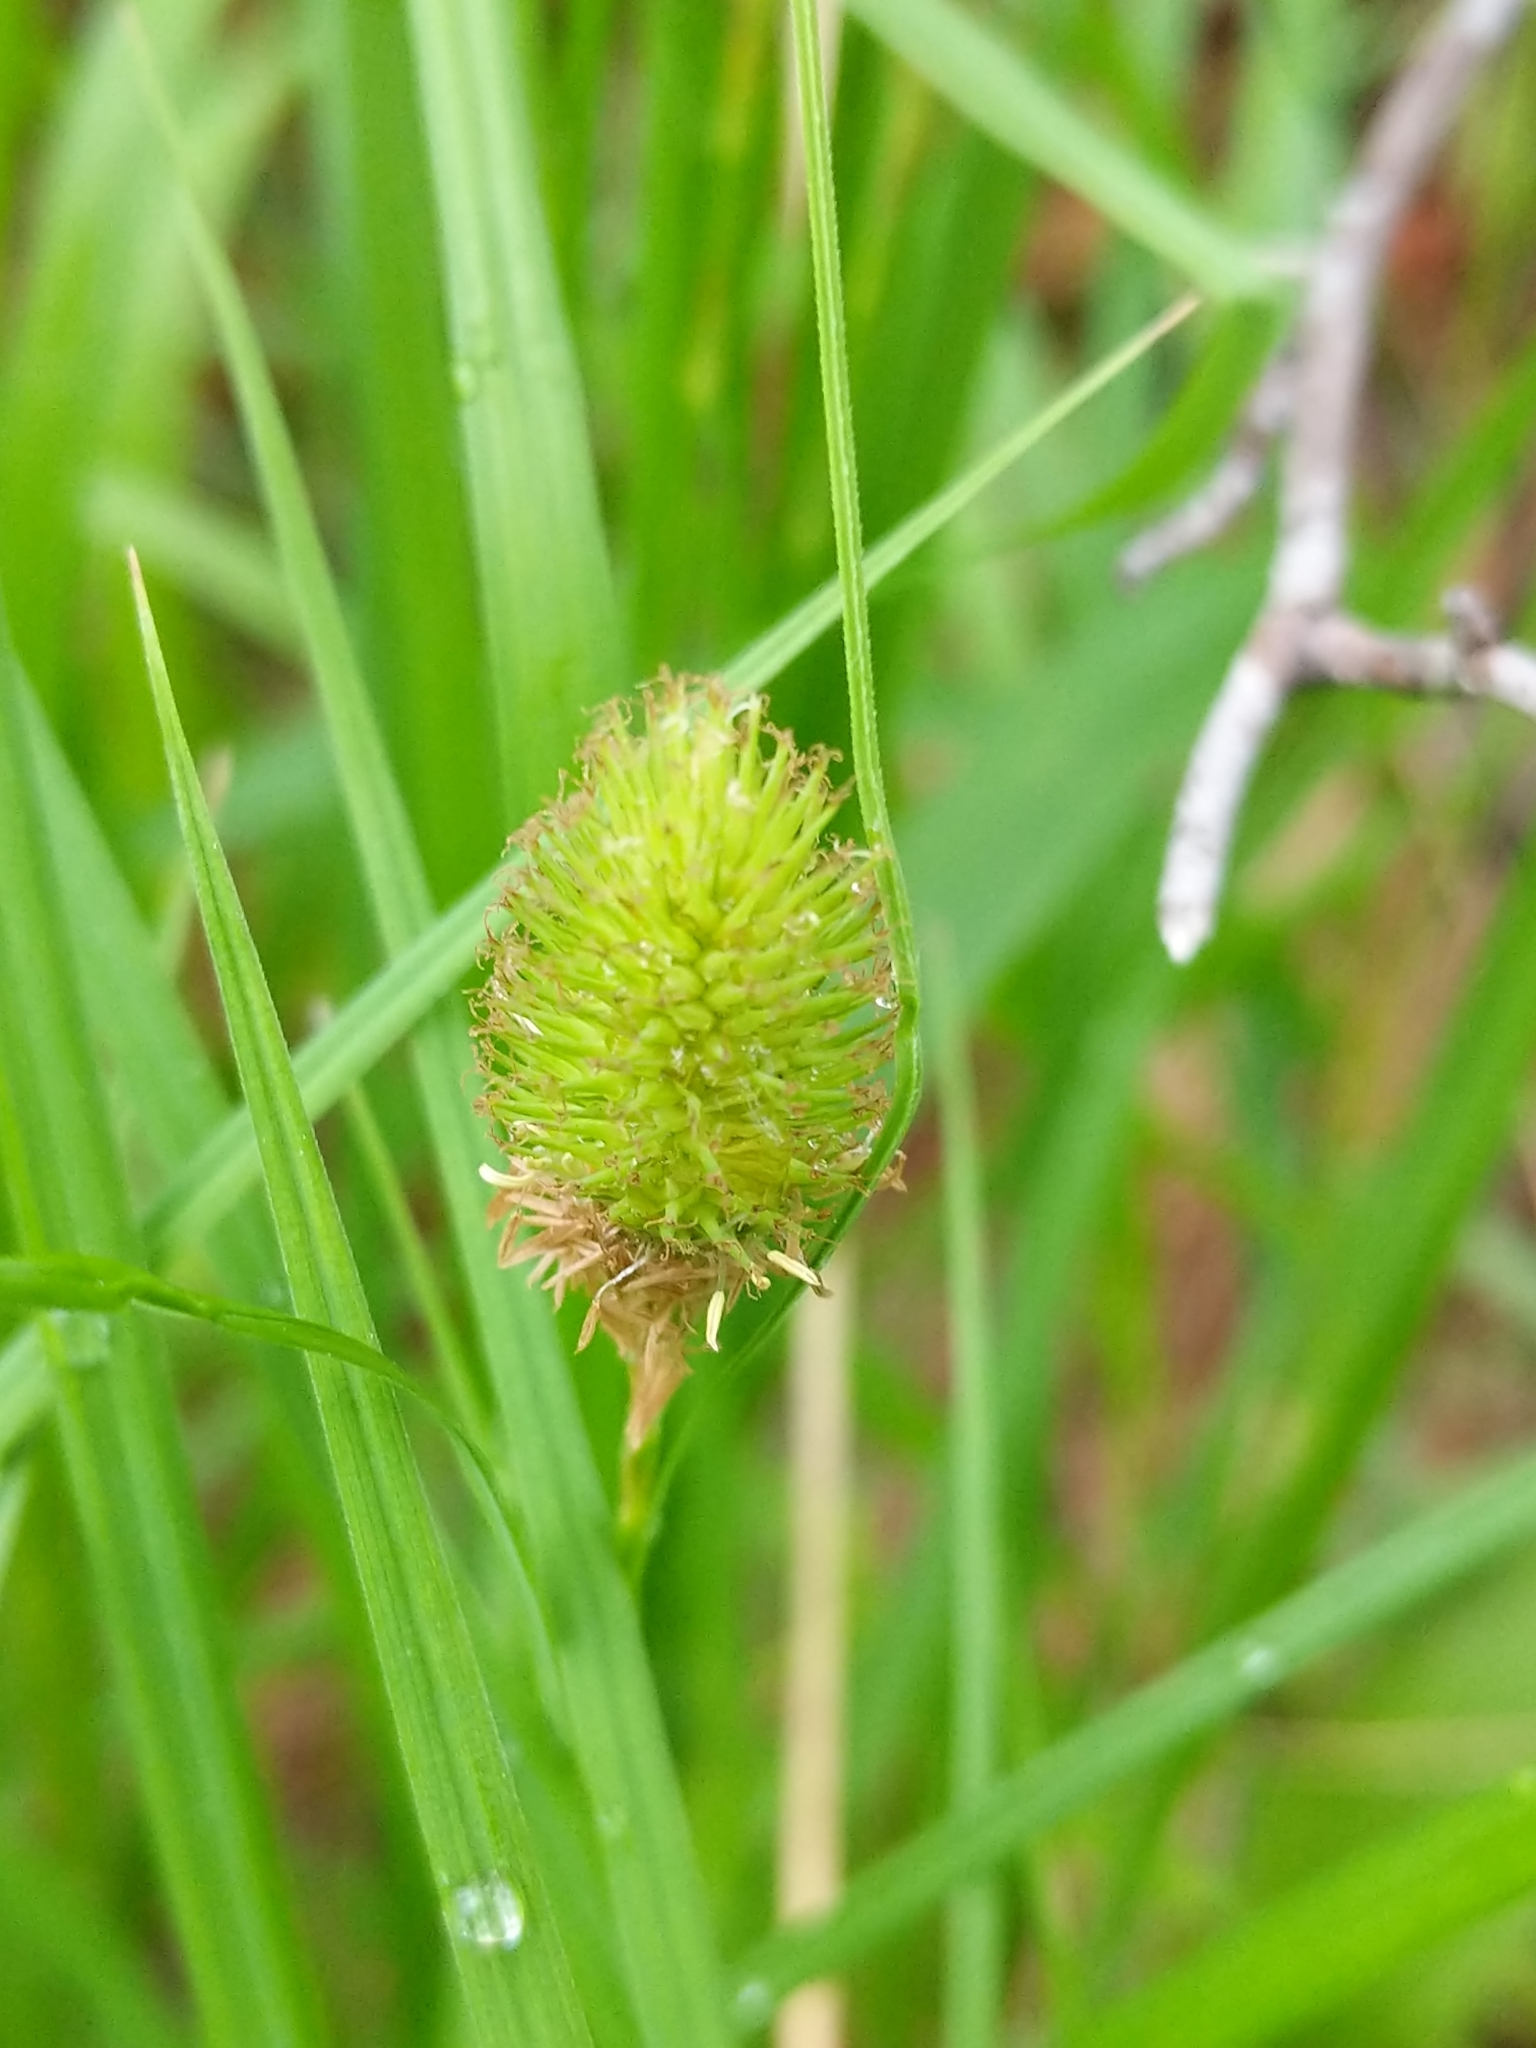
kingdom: Plantae
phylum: Tracheophyta
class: Liliopsida
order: Poales
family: Cyperaceae
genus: Carex
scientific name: Carex squarrosa
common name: Narrow-leaved cattail sedge
